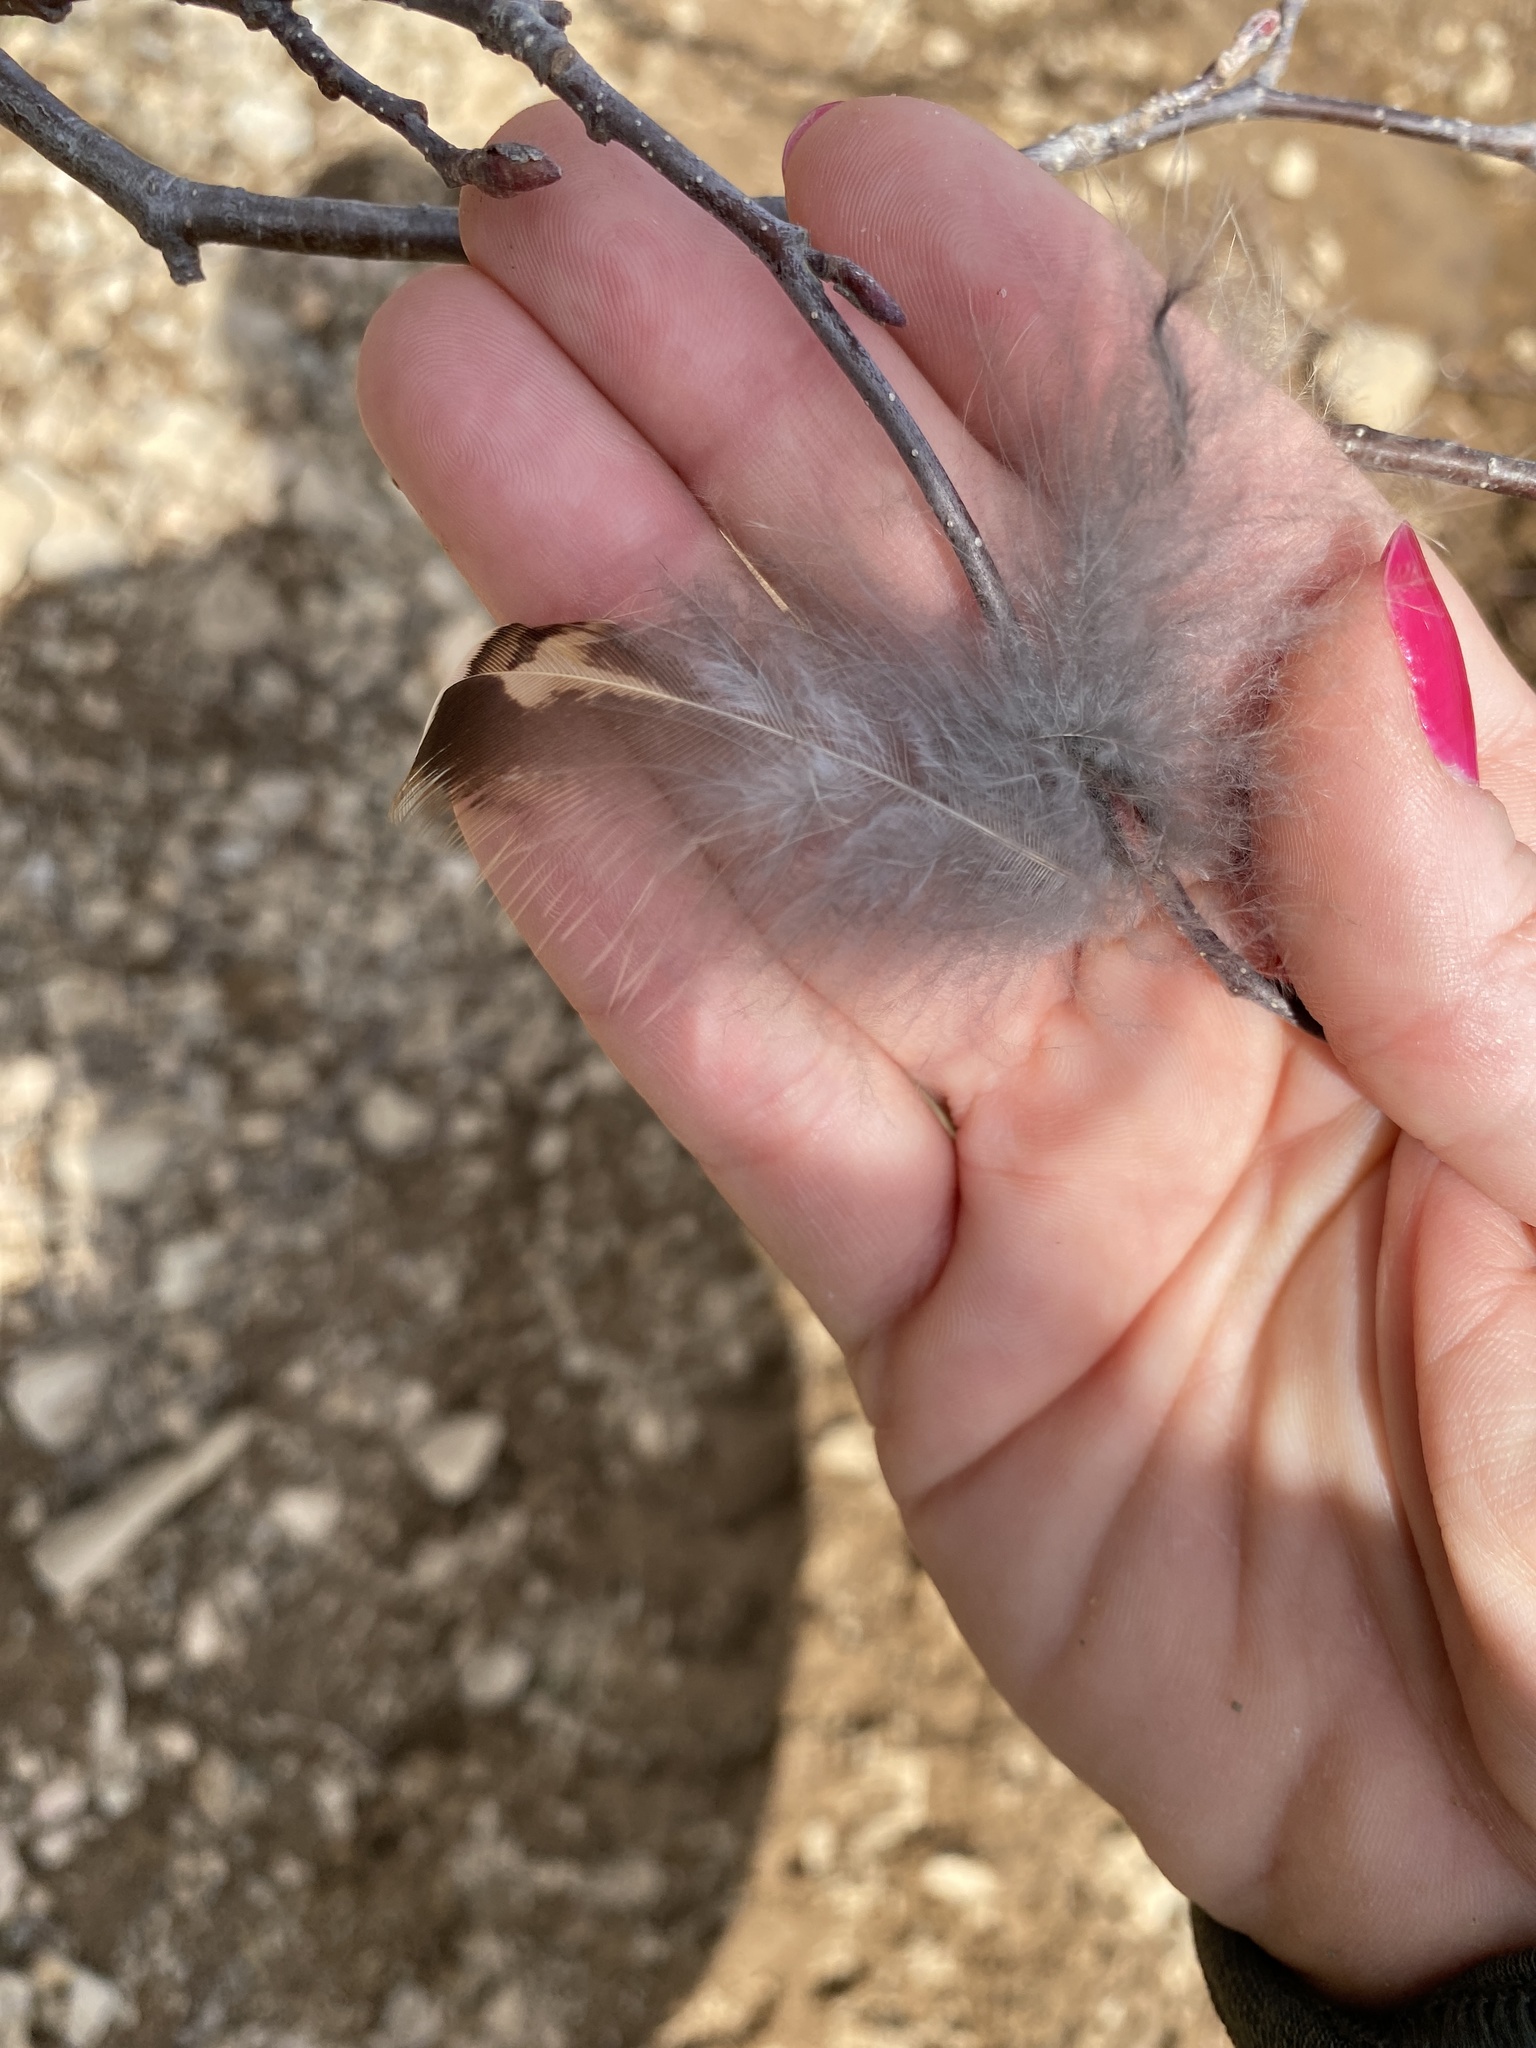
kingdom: Animalia
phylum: Chordata
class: Aves
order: Galliformes
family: Phasianidae
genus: Bonasa
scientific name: Bonasa umbellus
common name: Ruffed grouse
